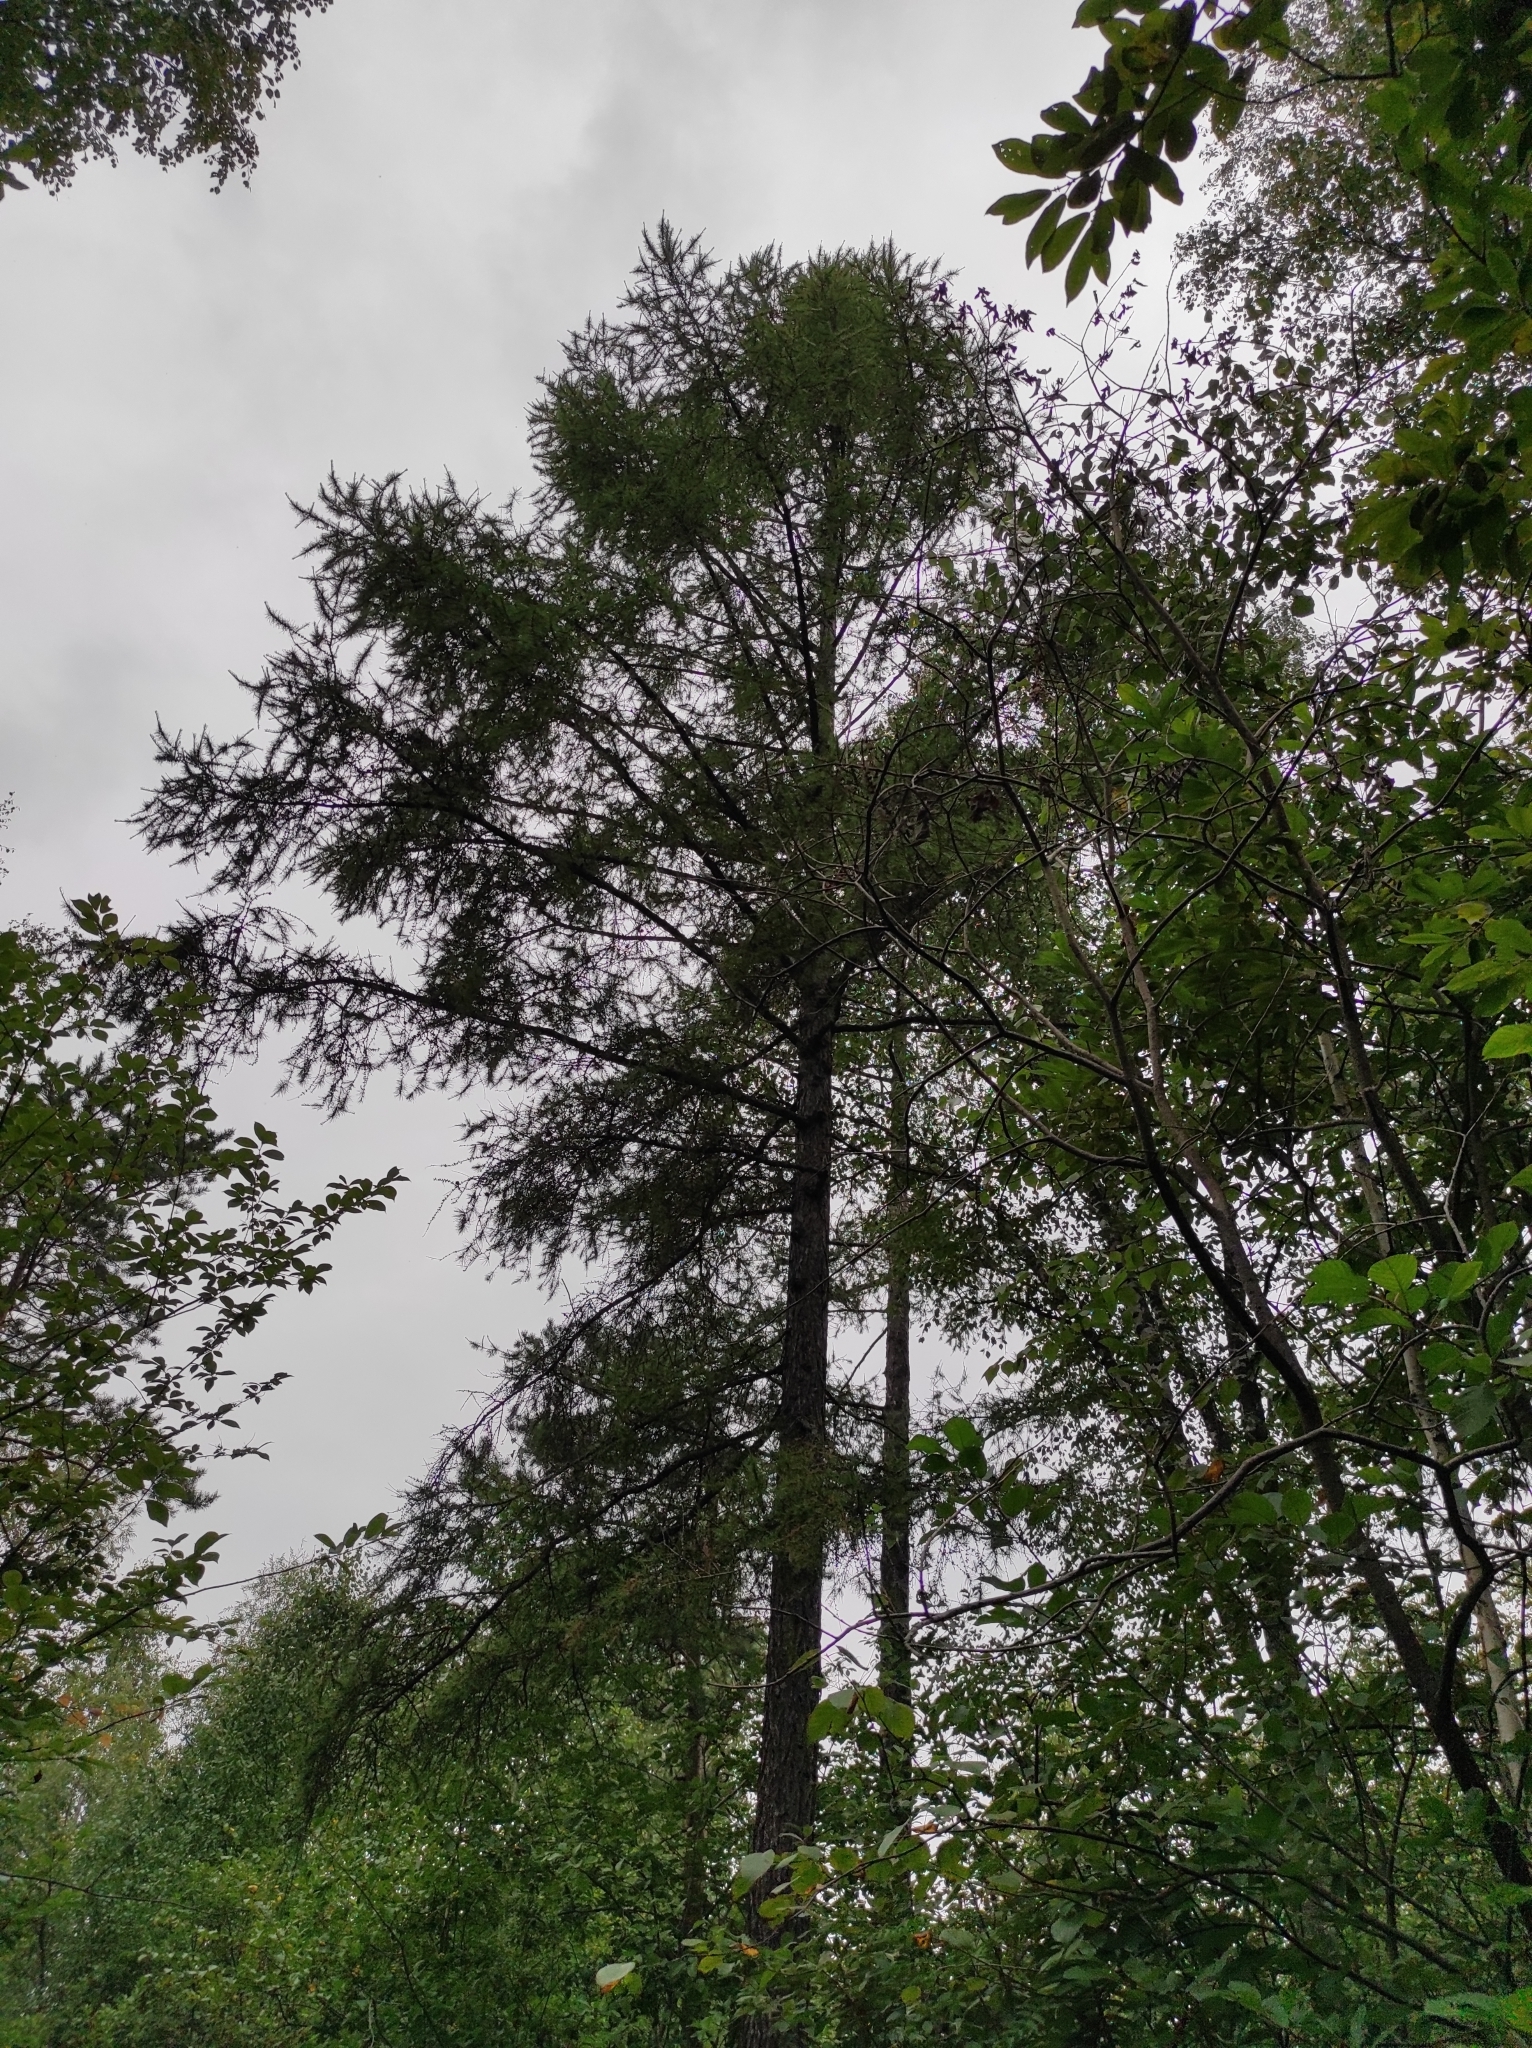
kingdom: Plantae
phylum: Tracheophyta
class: Pinopsida
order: Pinales
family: Pinaceae
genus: Larix
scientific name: Larix sibirica
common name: Siberian larch
